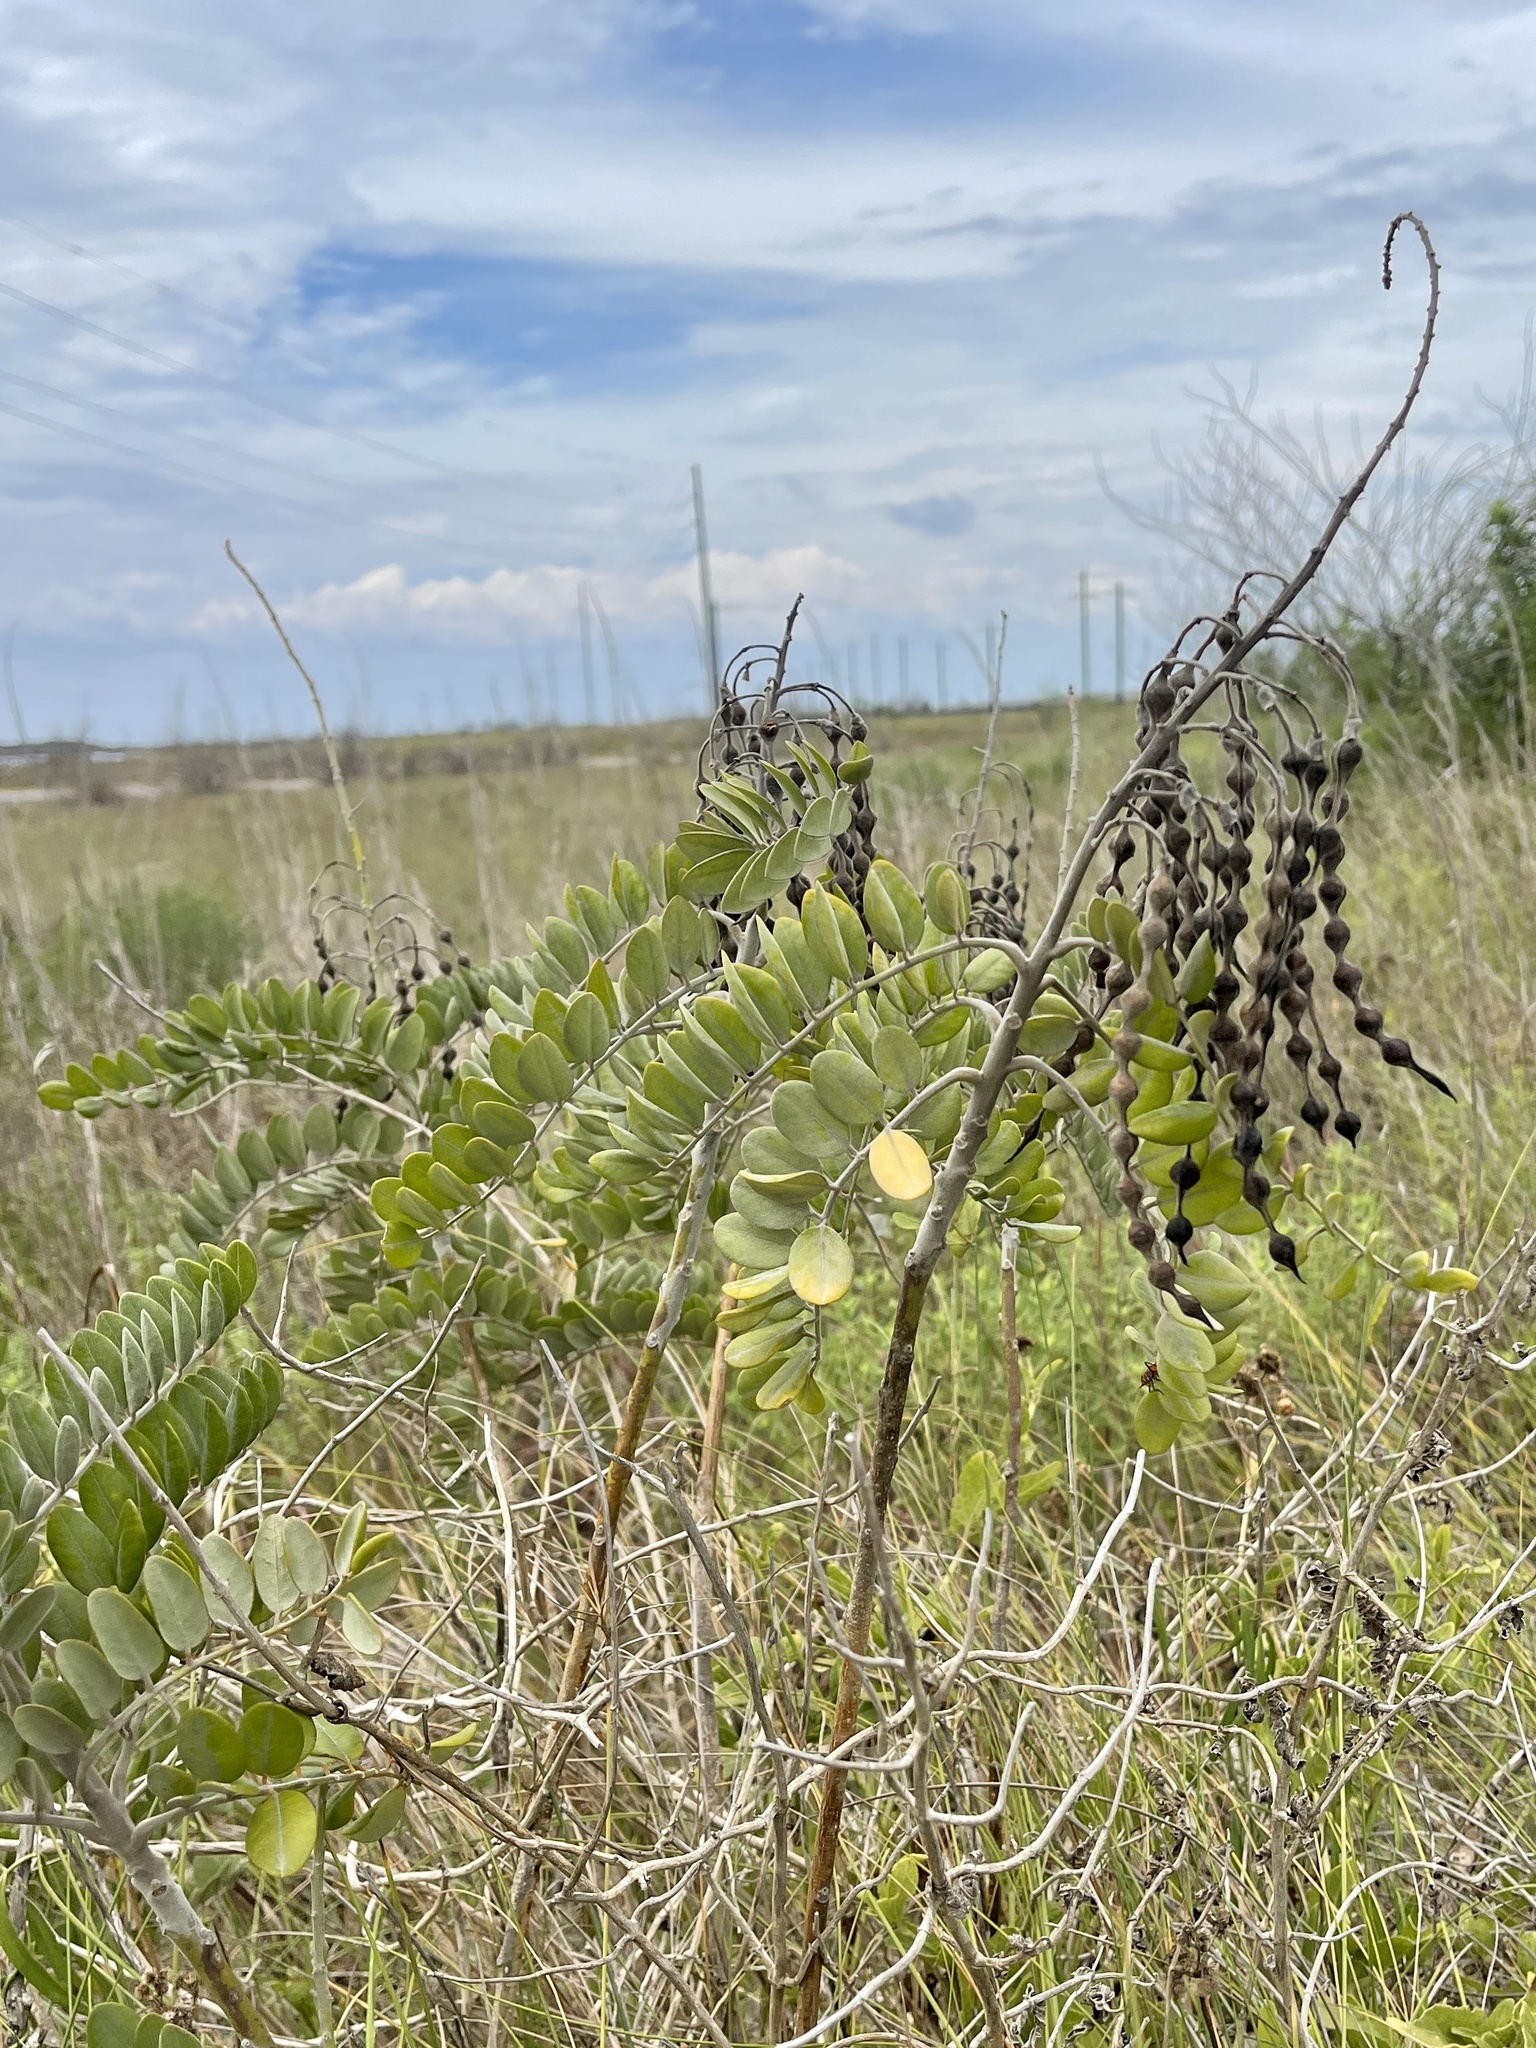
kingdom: Plantae
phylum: Tracheophyta
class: Magnoliopsida
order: Fabales
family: Fabaceae
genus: Sophora
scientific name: Sophora tomentosa
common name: Yellow necklacepod
